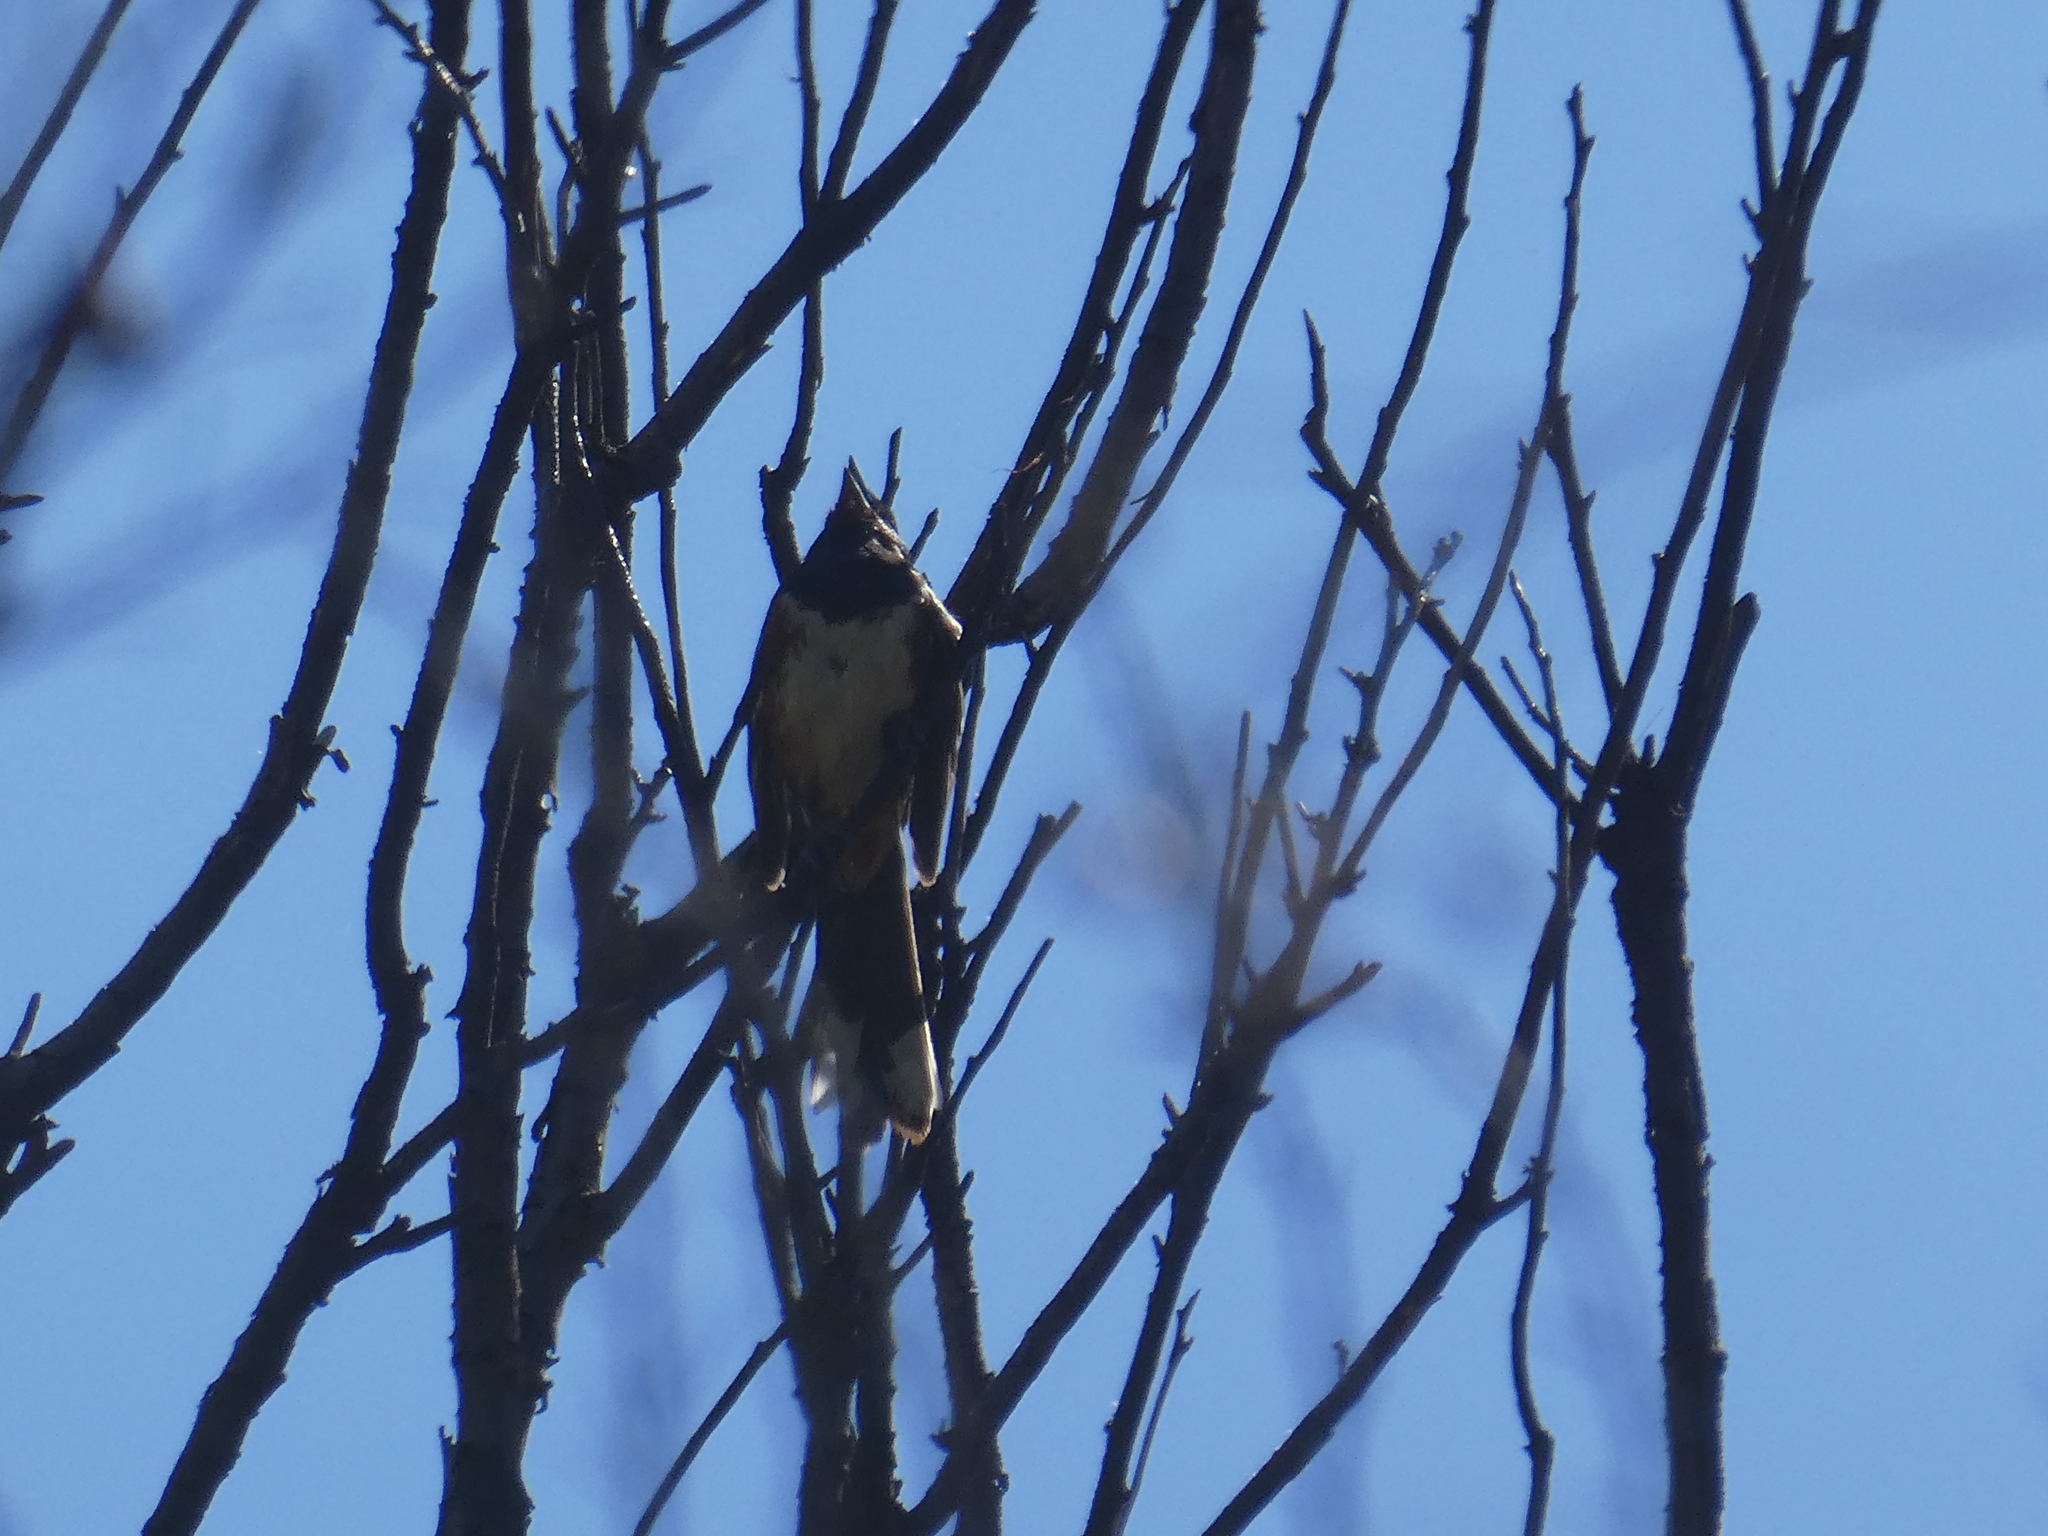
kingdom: Animalia
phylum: Chordata
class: Aves
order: Passeriformes
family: Passerellidae
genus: Pipilo
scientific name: Pipilo maculatus
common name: Spotted towhee
